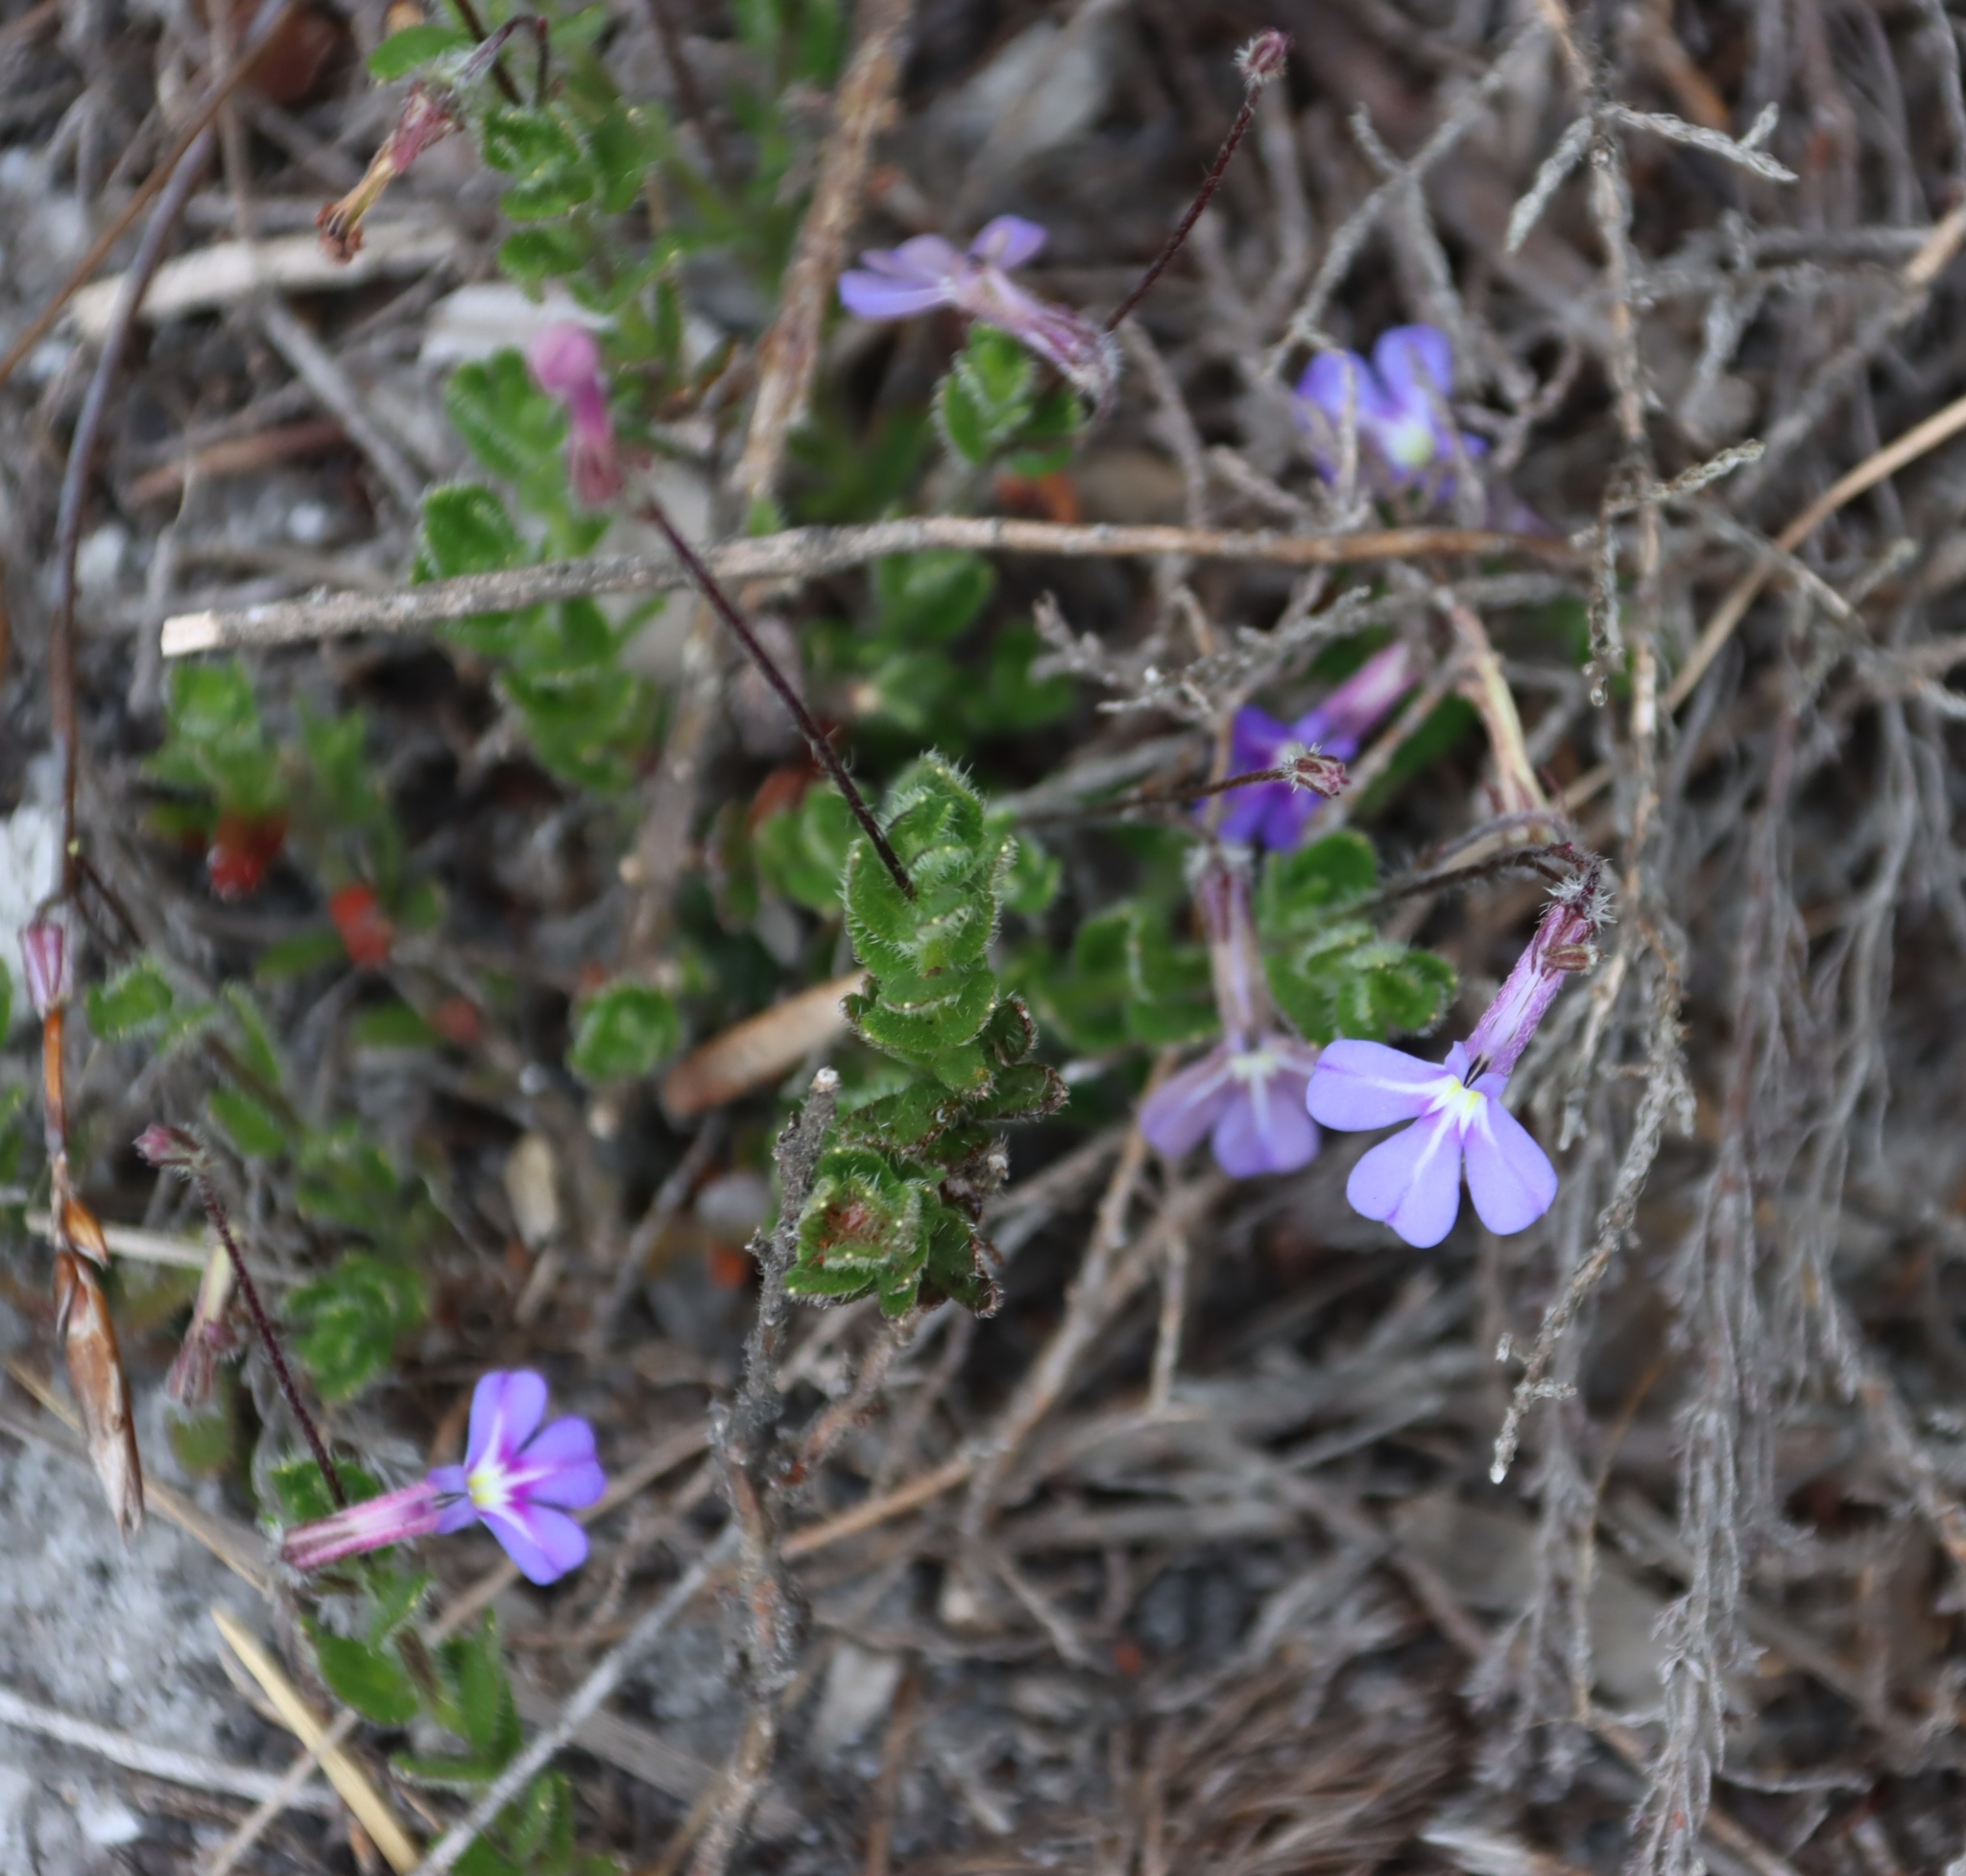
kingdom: Plantae
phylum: Tracheophyta
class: Magnoliopsida
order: Asterales
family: Campanulaceae
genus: Lobelia
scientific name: Lobelia neglecta
